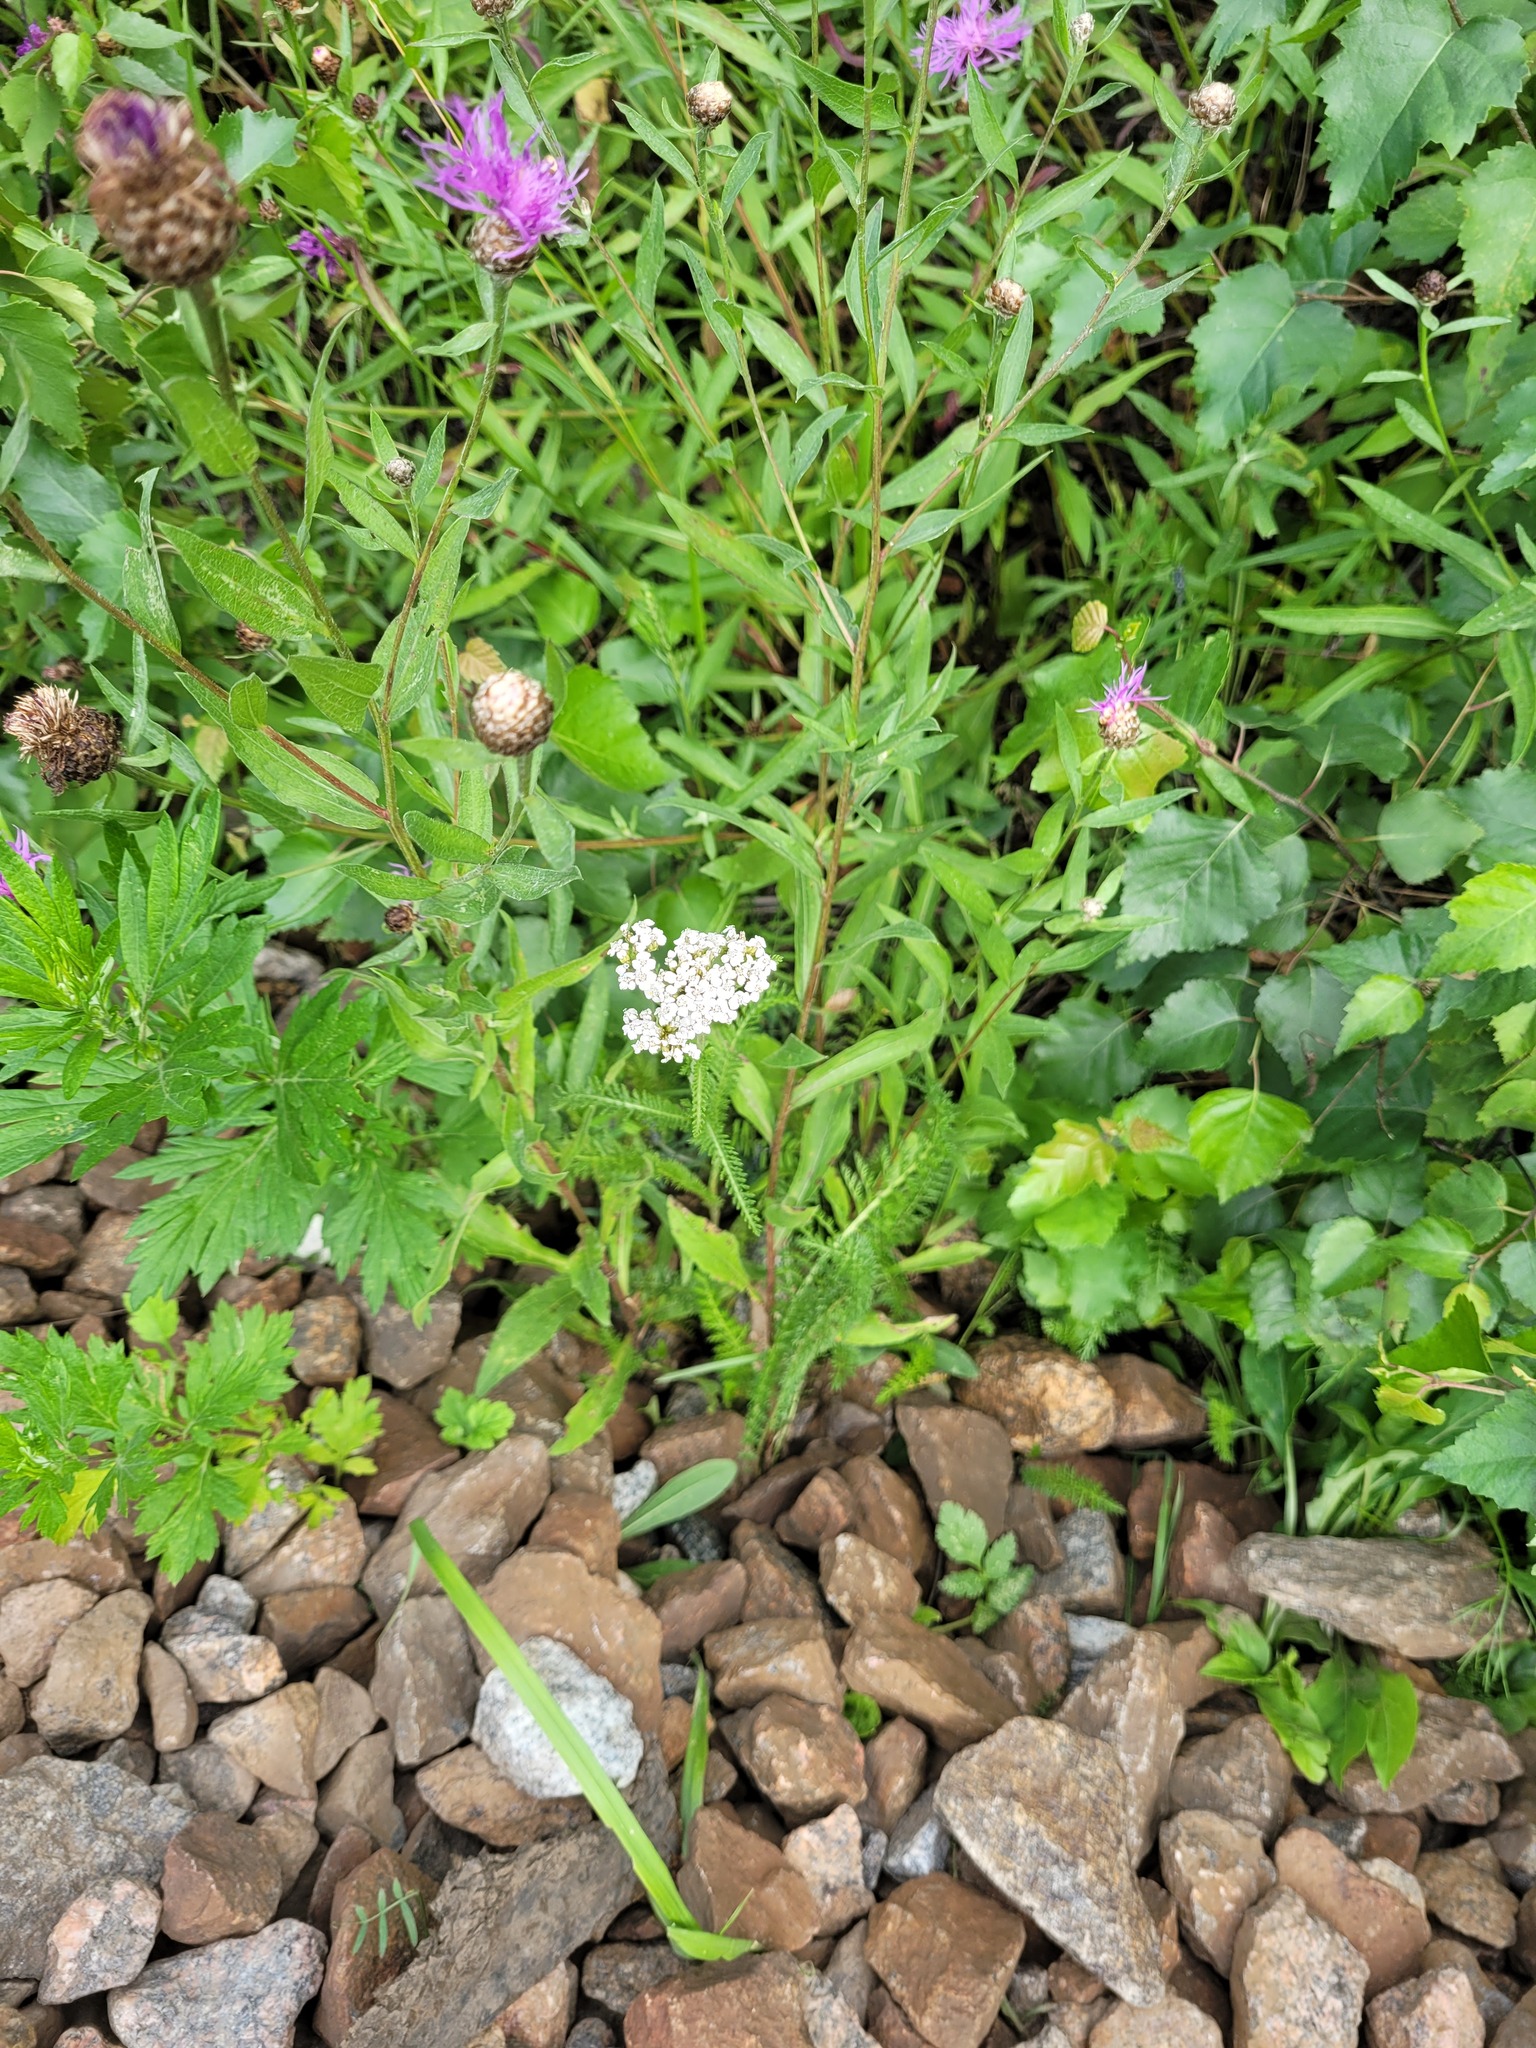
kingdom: Plantae
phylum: Tracheophyta
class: Magnoliopsida
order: Asterales
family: Asteraceae
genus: Centaurea
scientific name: Centaurea jacea
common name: Brown knapweed
